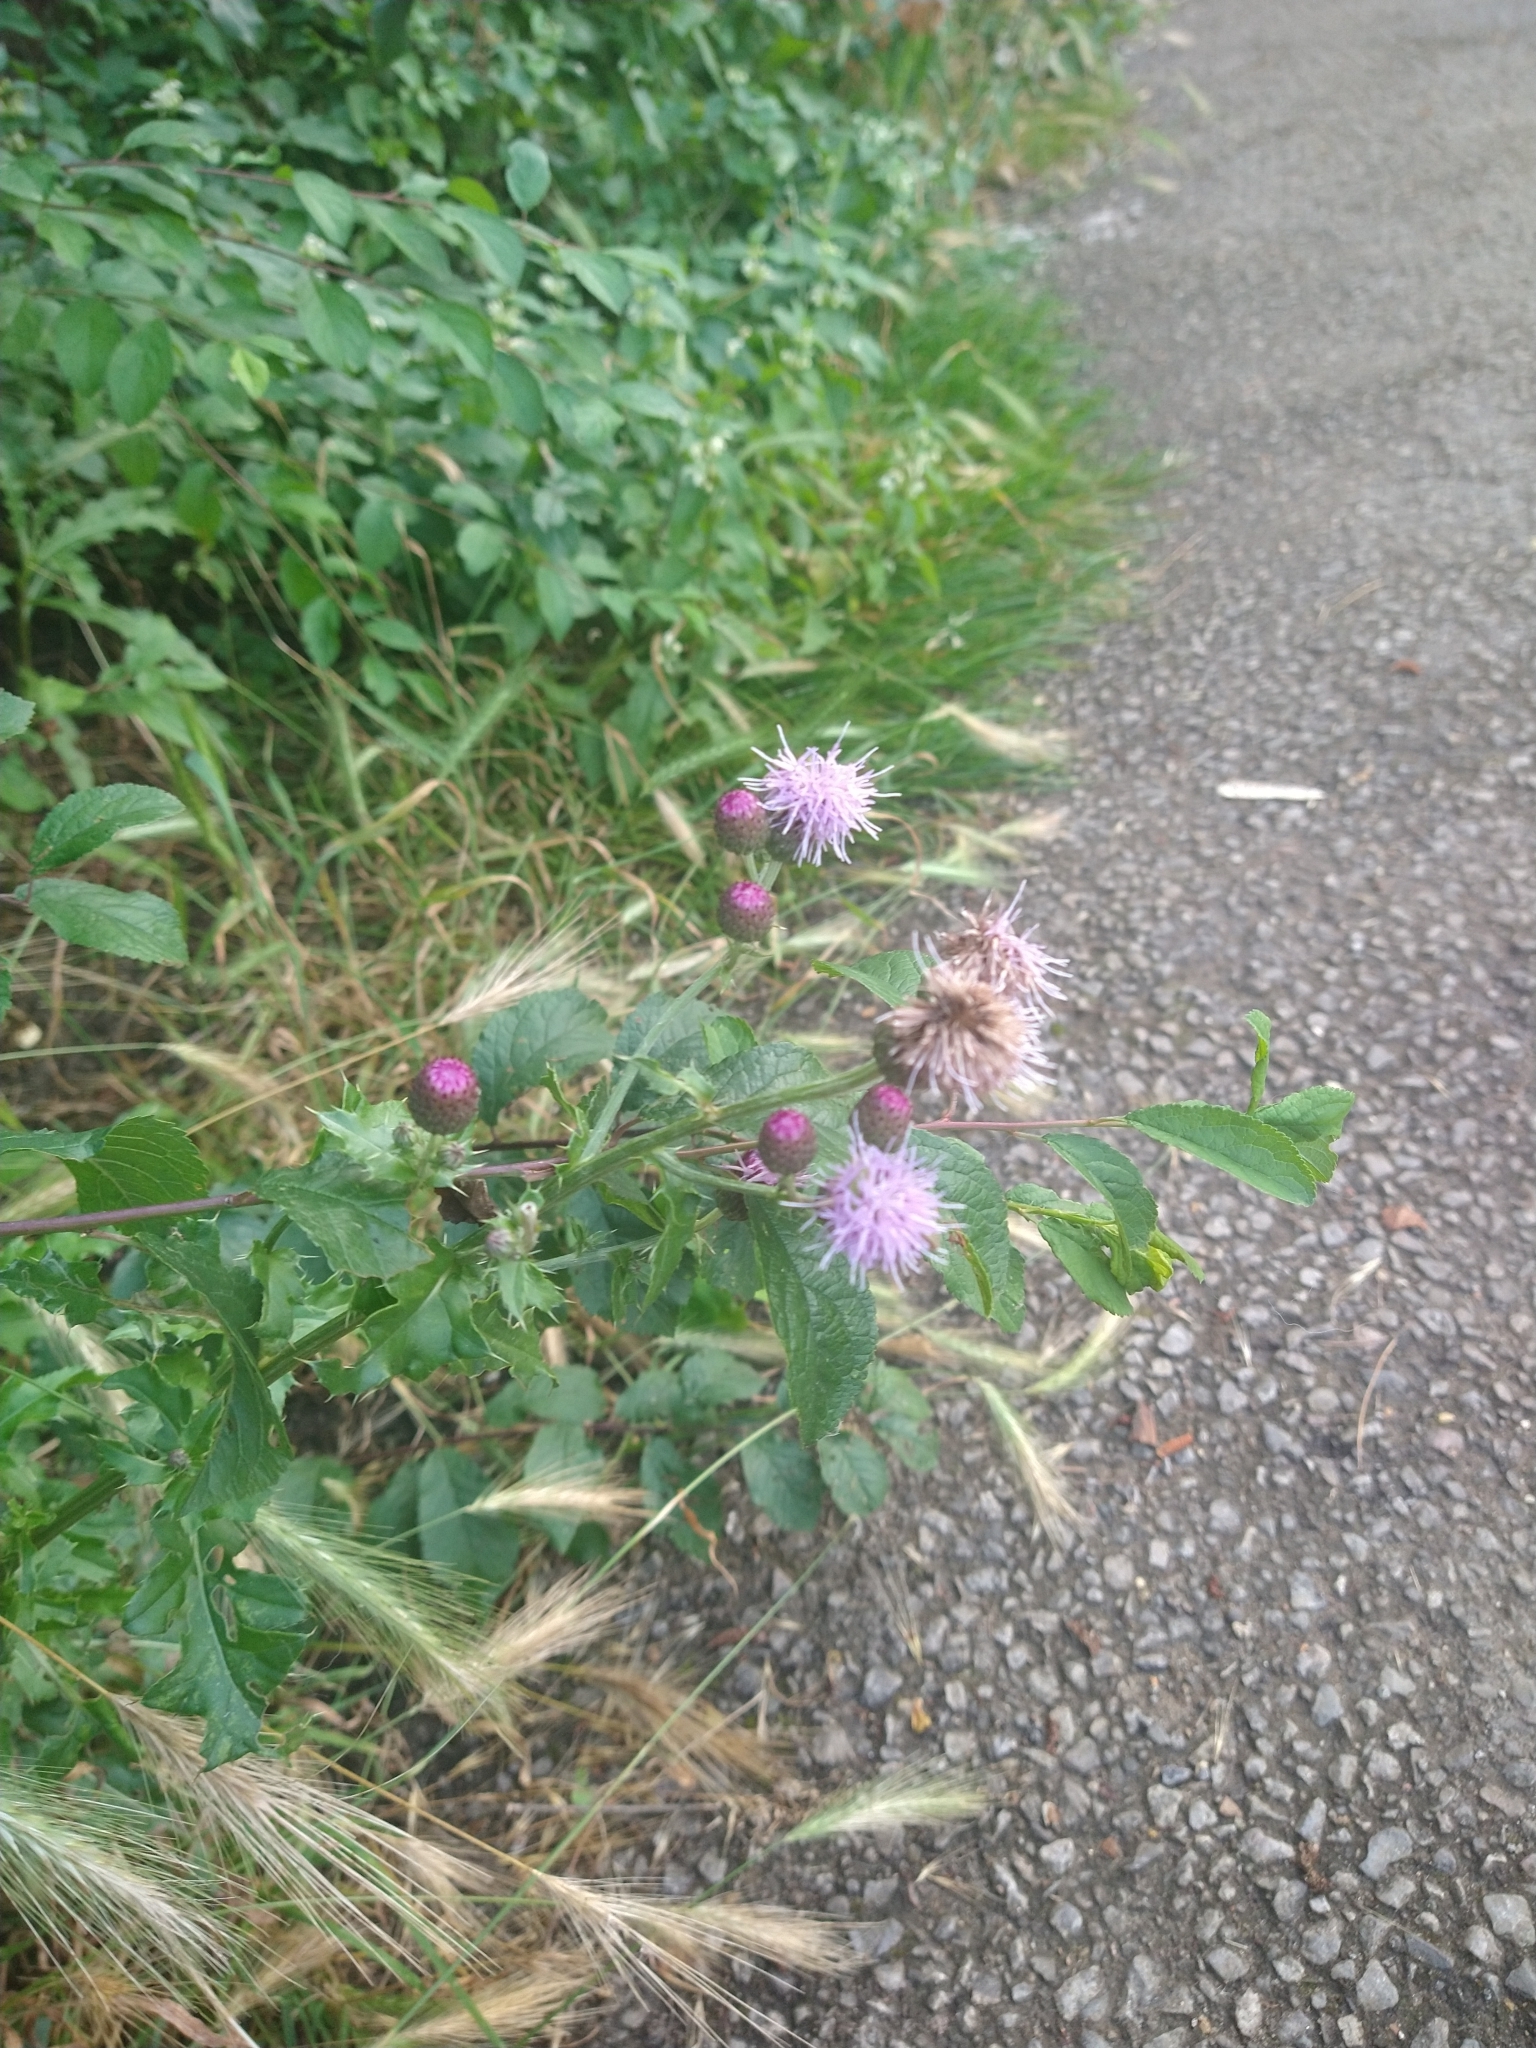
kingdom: Plantae
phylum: Tracheophyta
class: Magnoliopsida
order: Asterales
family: Asteraceae
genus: Cirsium
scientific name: Cirsium arvense
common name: Creeping thistle
